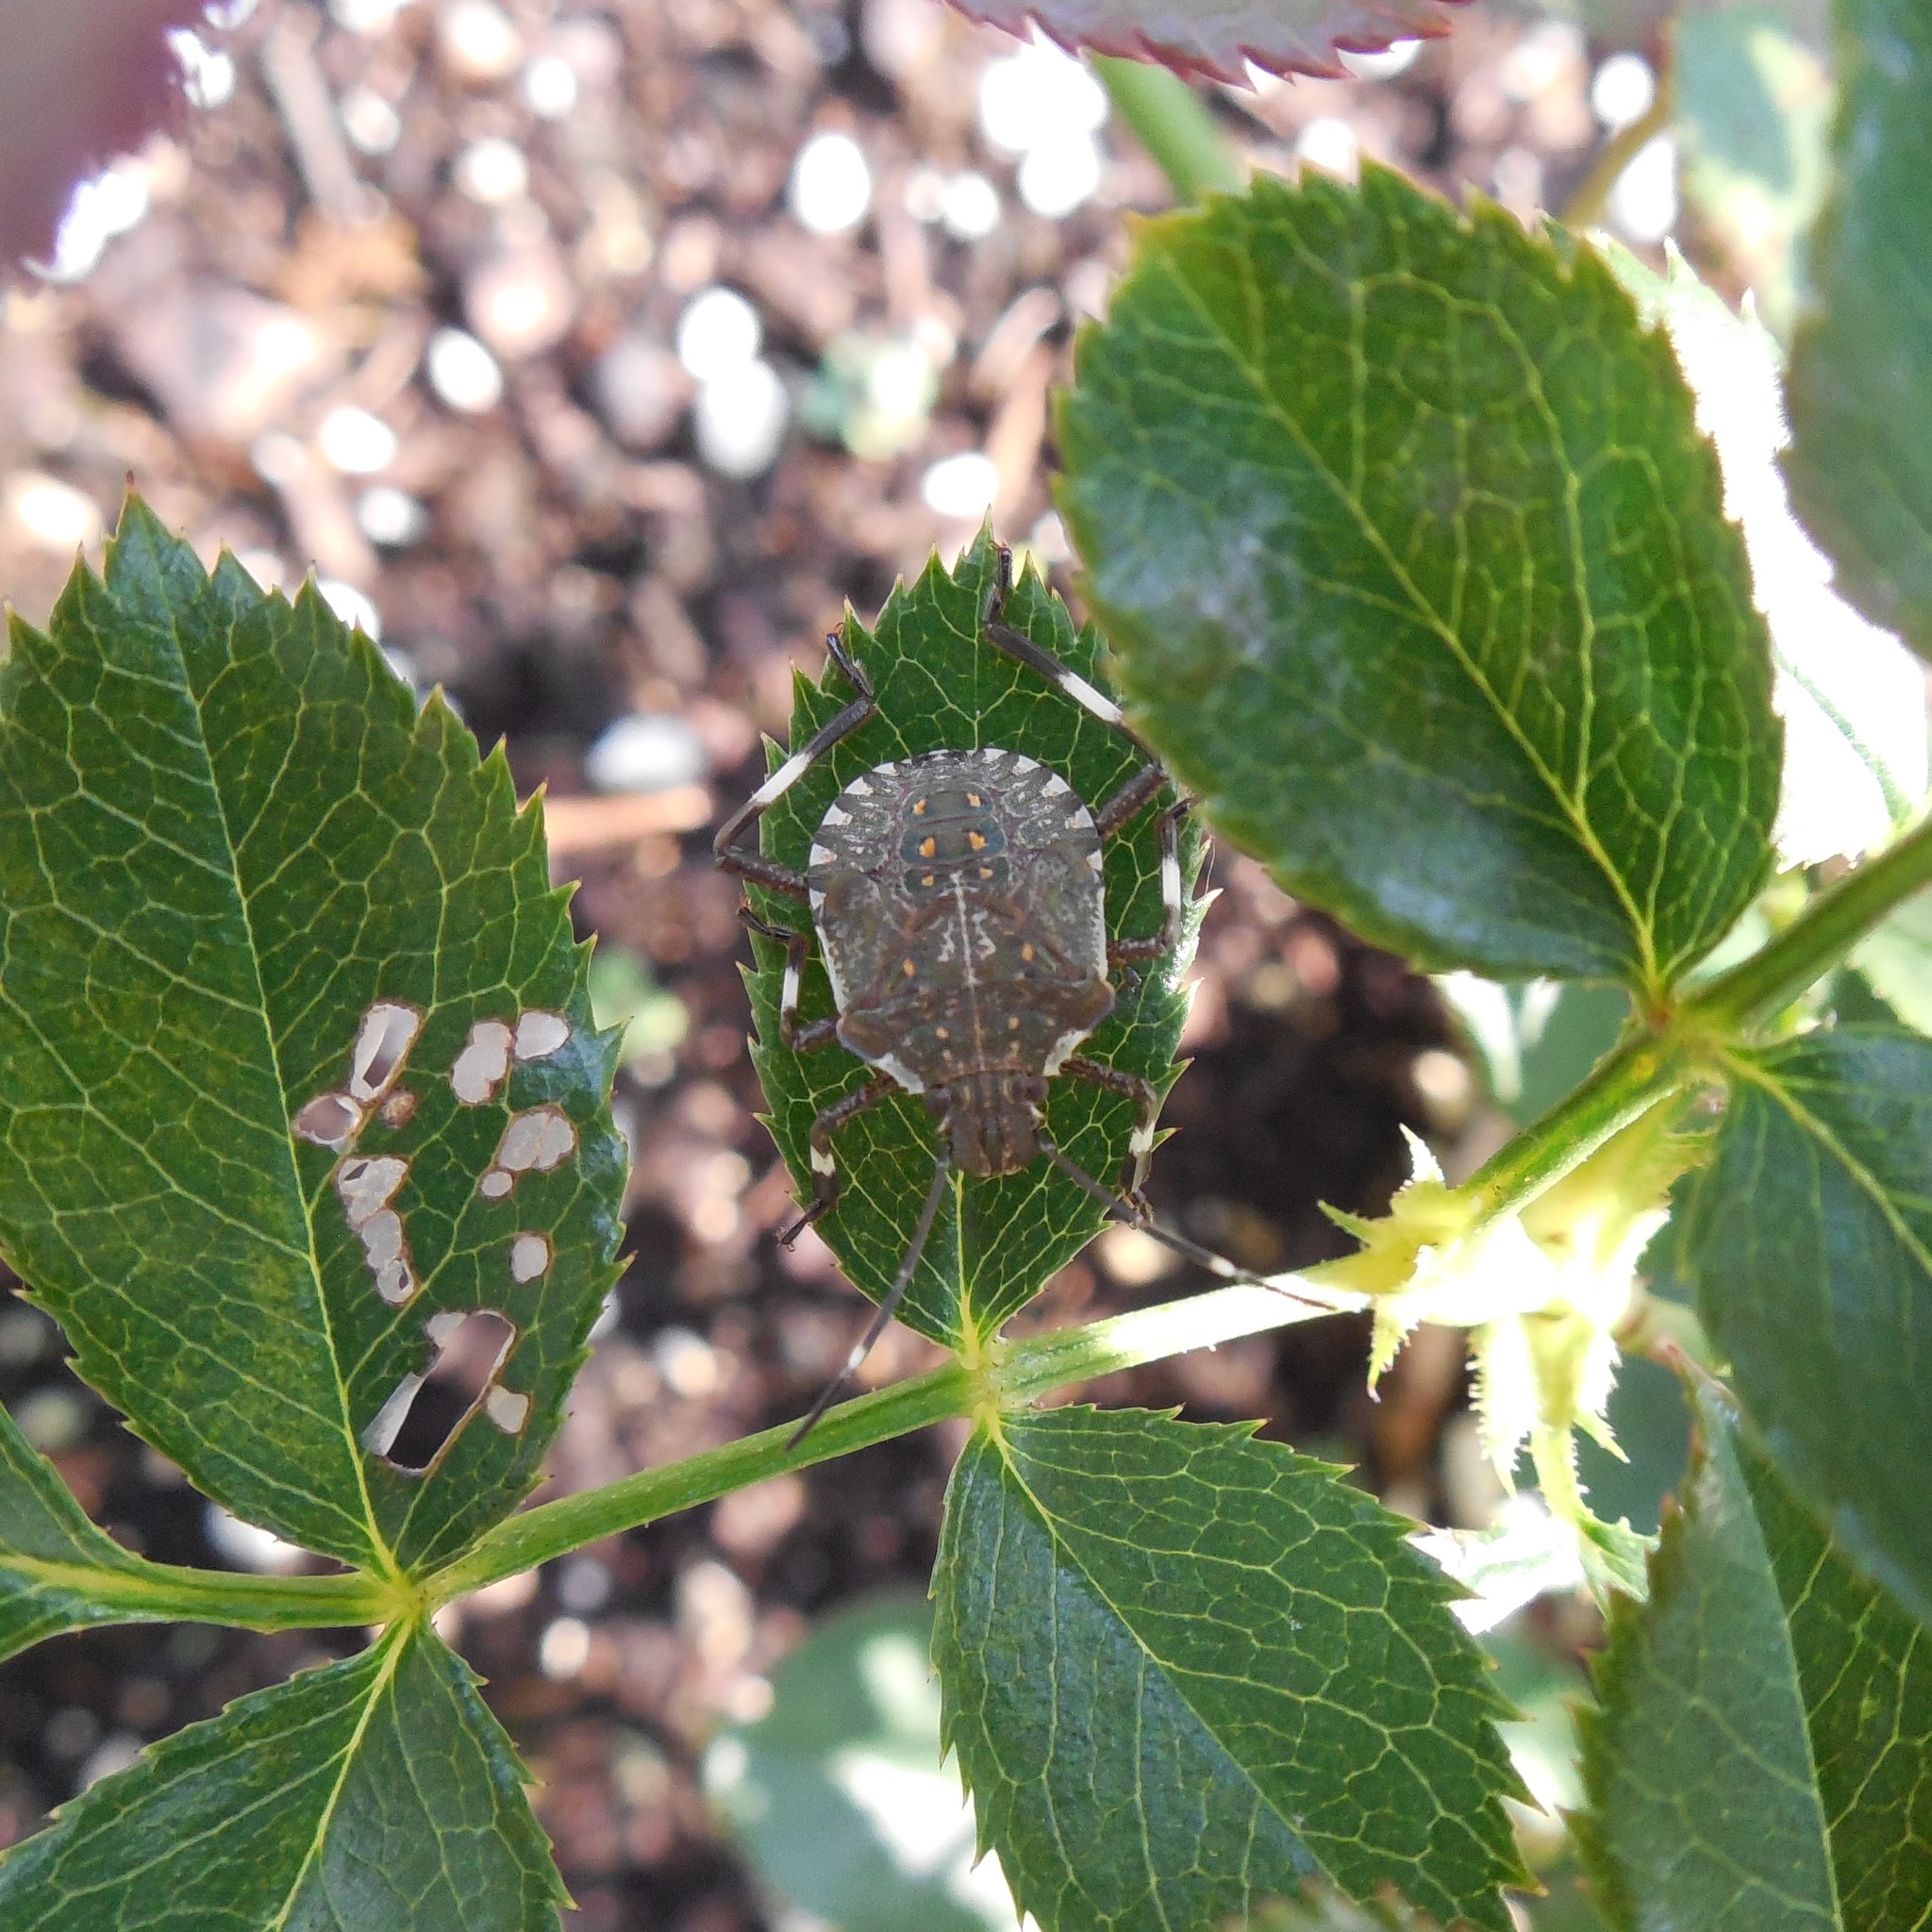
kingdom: Animalia
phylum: Arthropoda
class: Insecta
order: Hemiptera
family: Pentatomidae
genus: Halyomorpha
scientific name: Halyomorpha halys
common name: Brown marmorated stink bug
